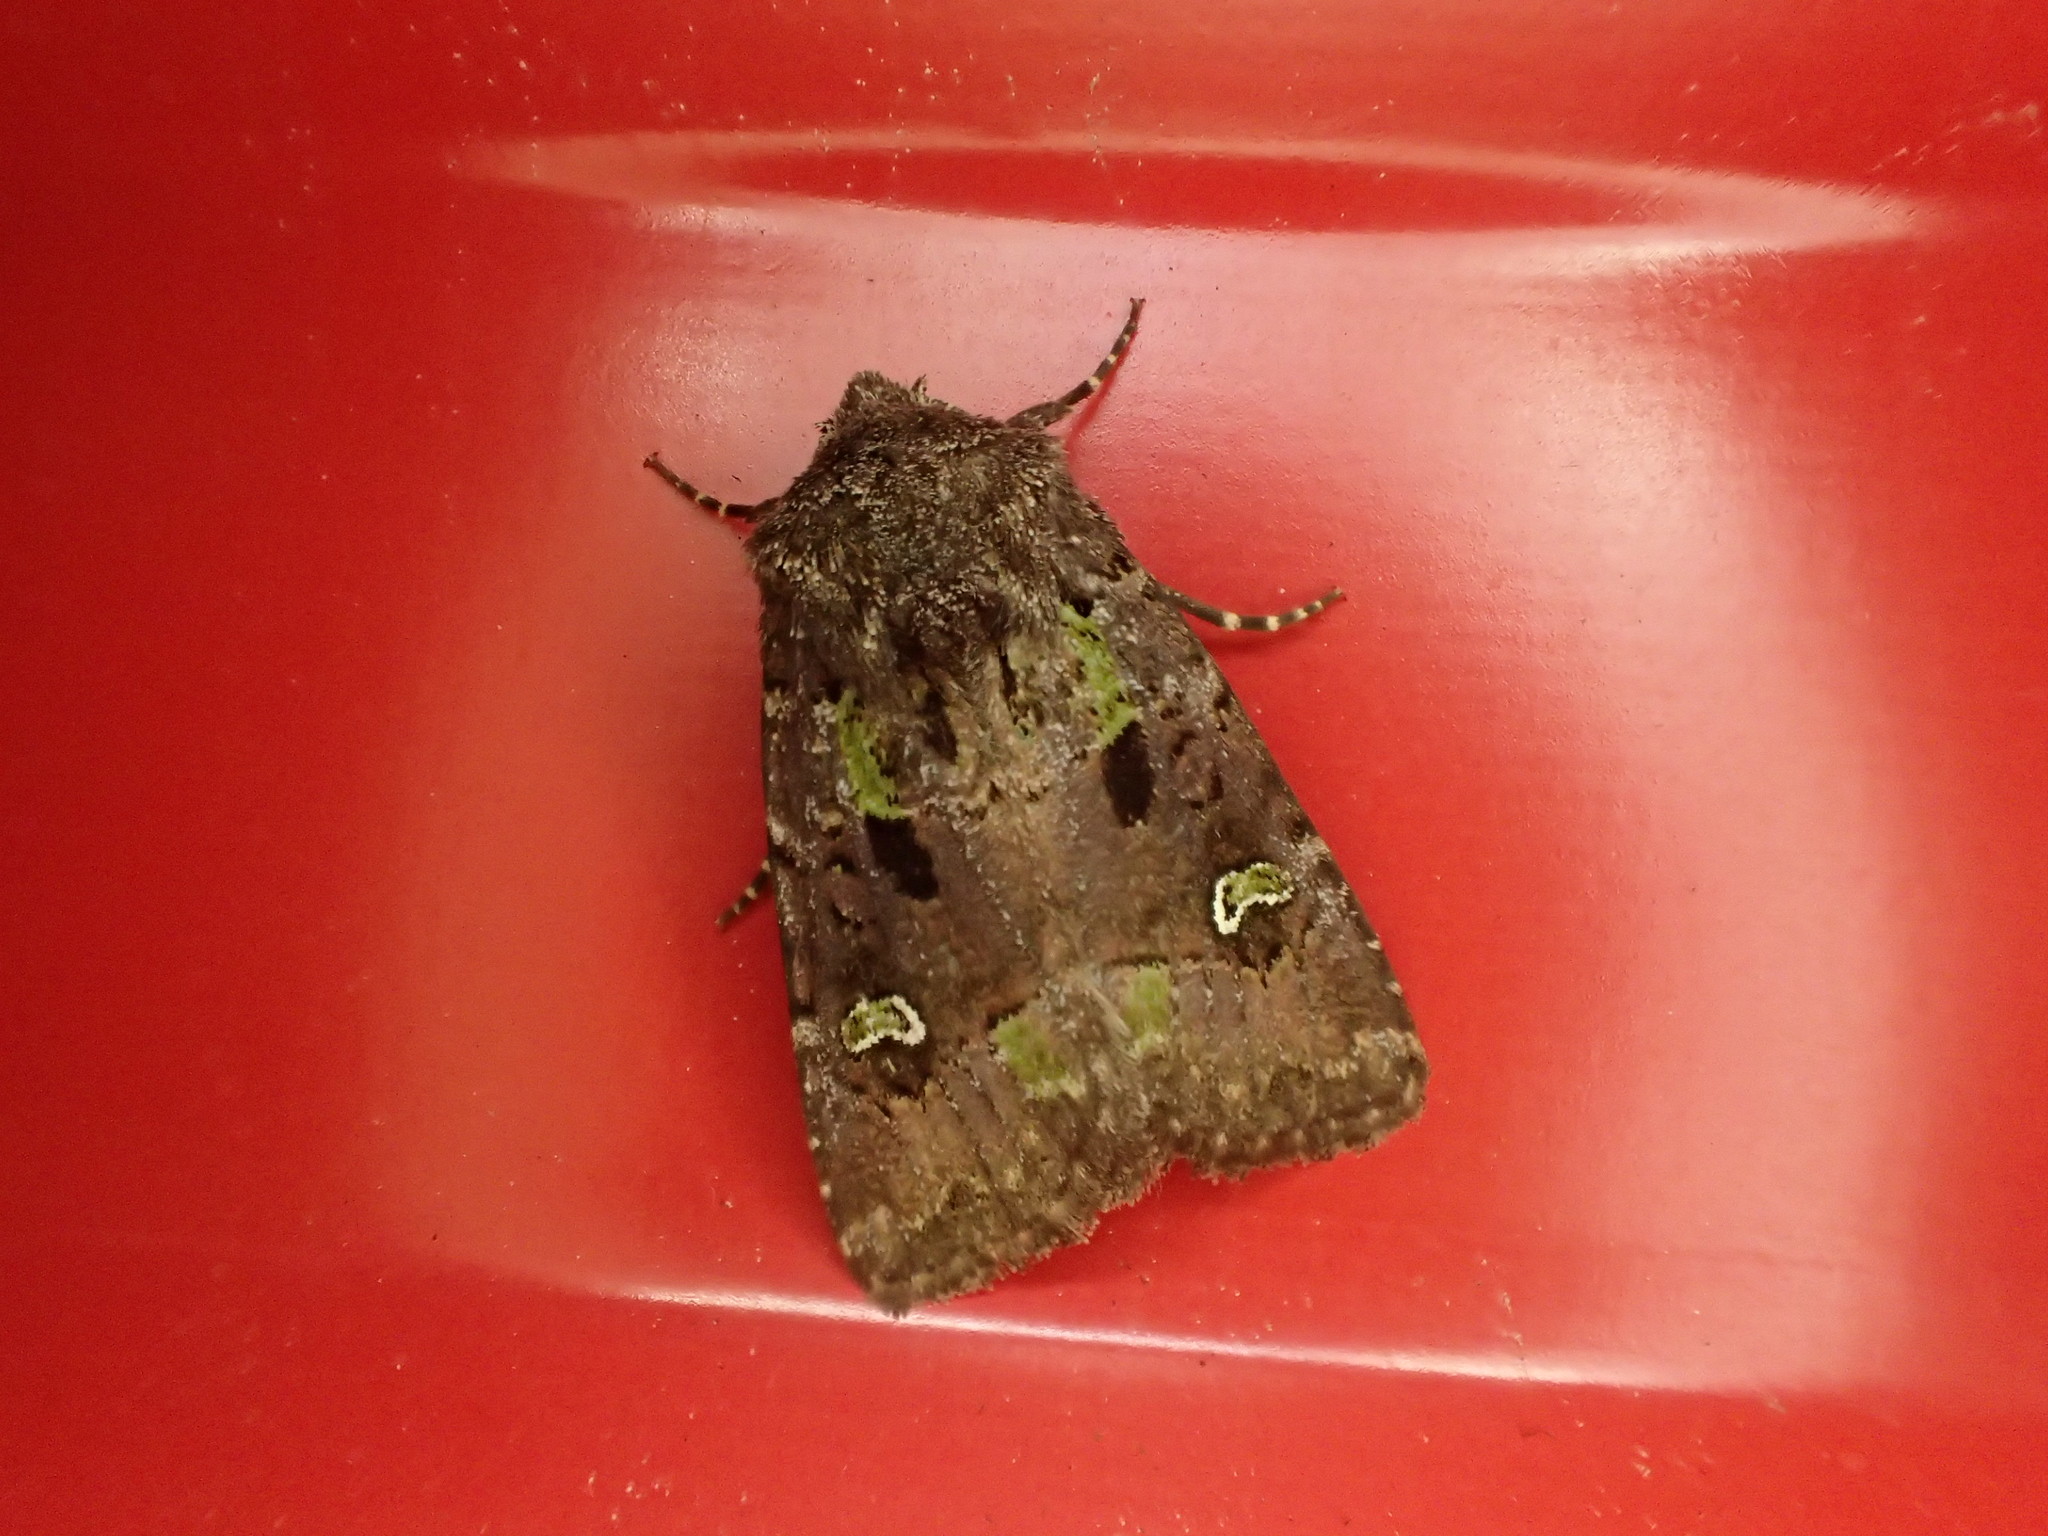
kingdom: Animalia
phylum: Arthropoda
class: Insecta
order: Lepidoptera
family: Noctuidae
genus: Lacinipolia
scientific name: Lacinipolia renigera
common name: Kidney-spotted minor
